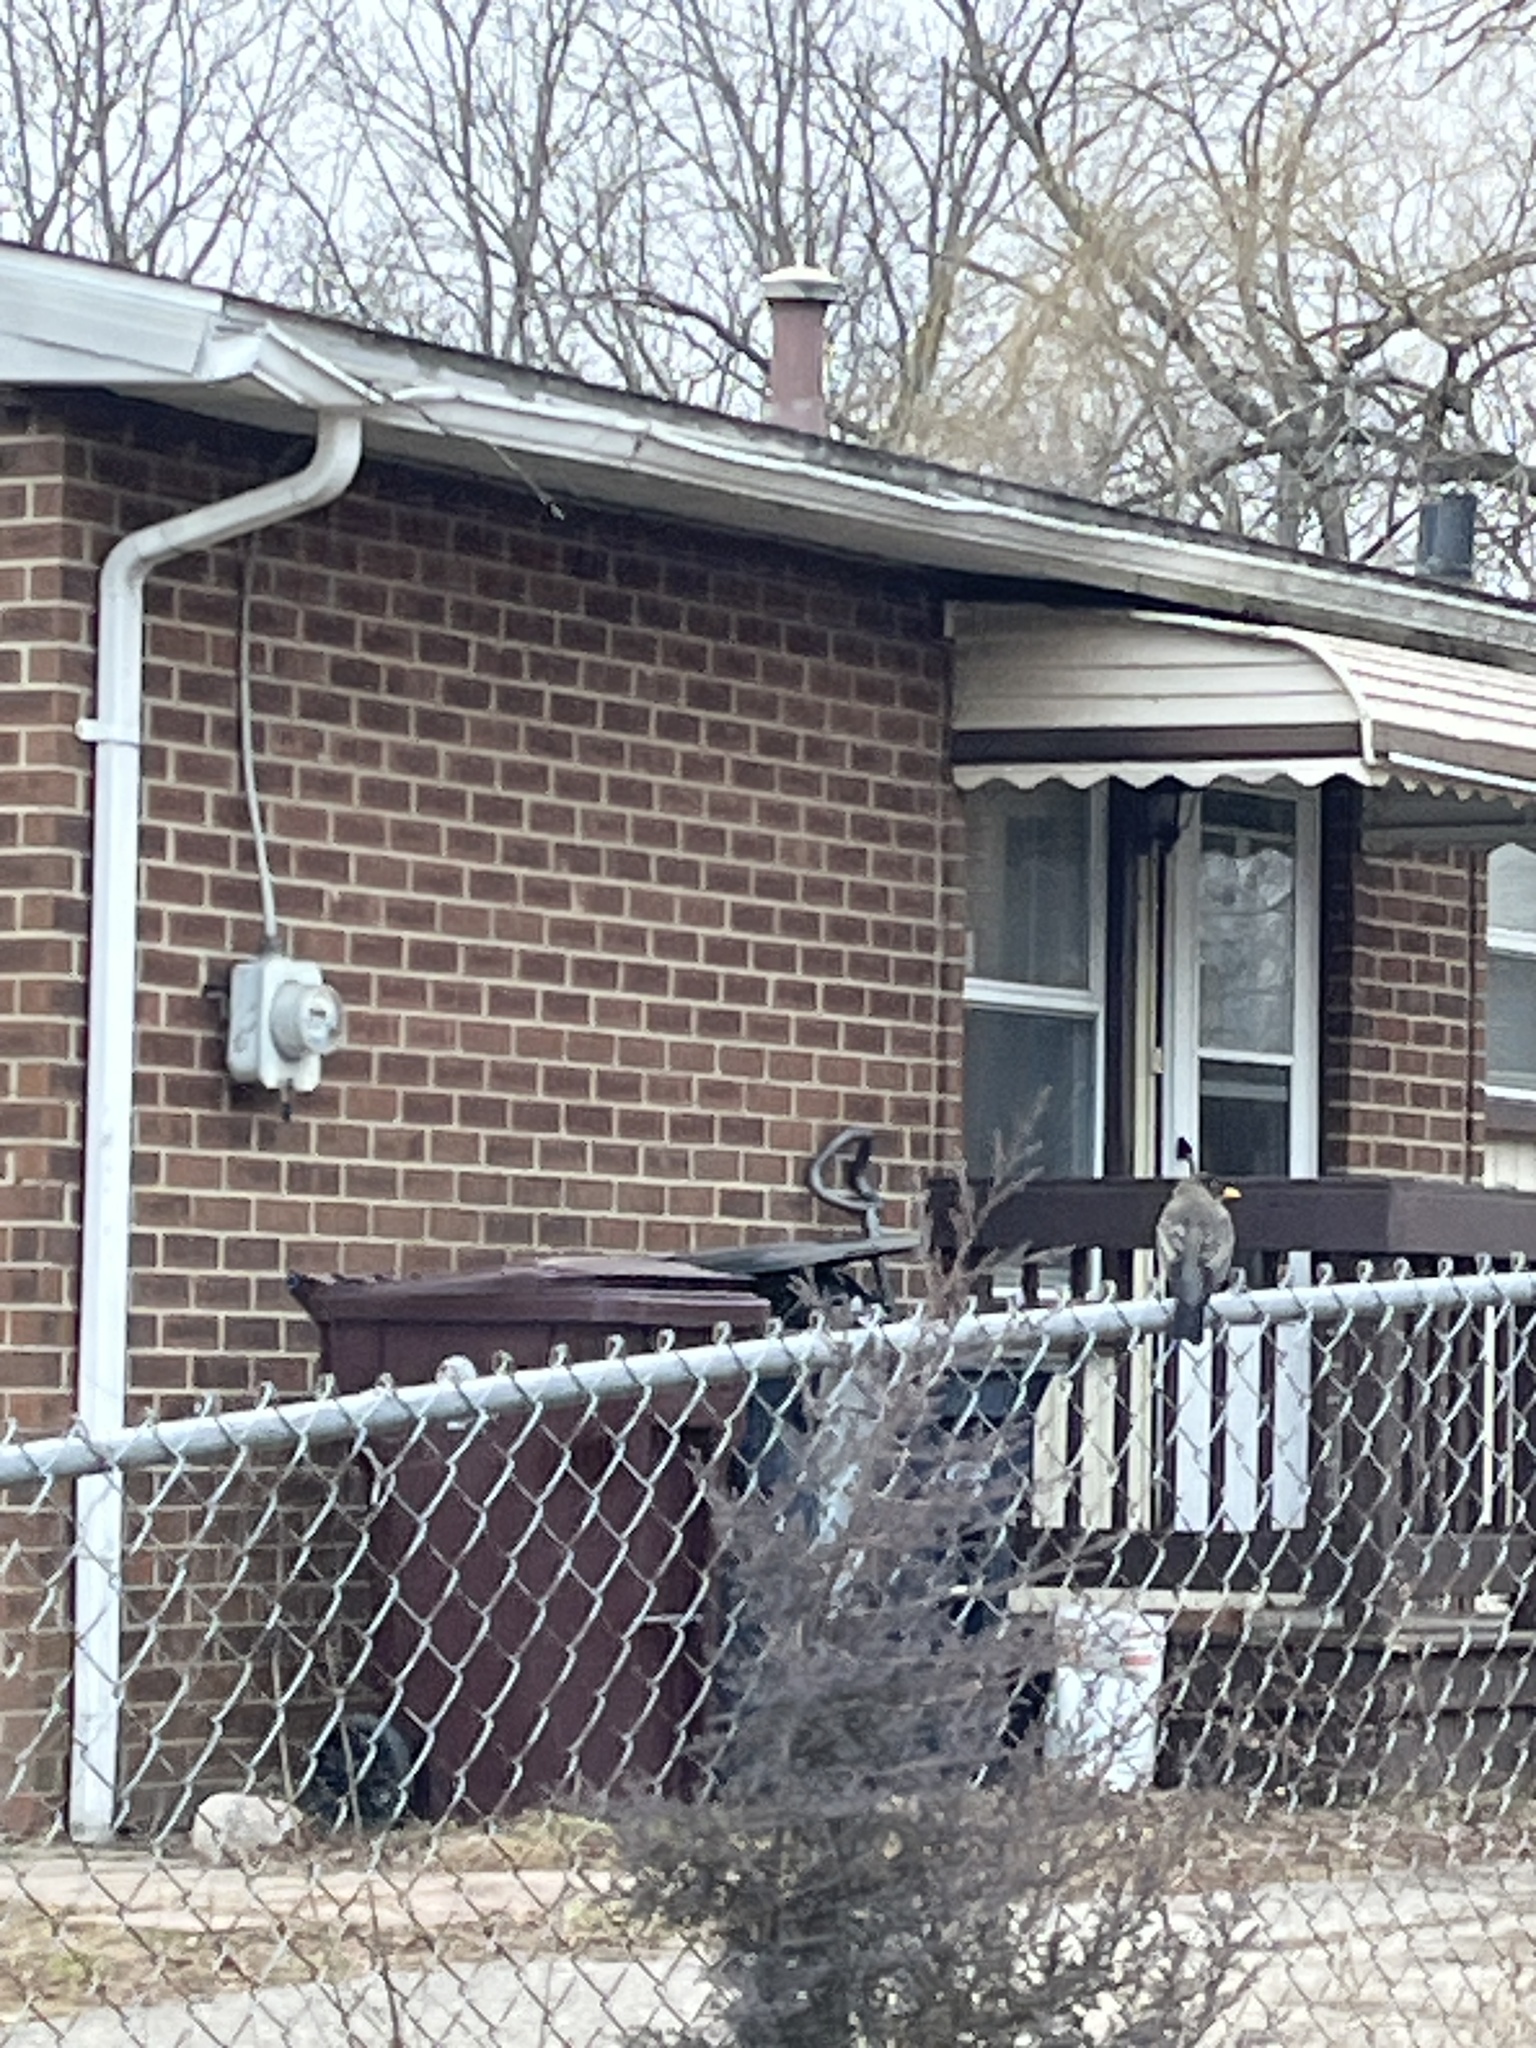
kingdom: Animalia
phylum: Chordata
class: Aves
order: Passeriformes
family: Turdidae
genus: Turdus
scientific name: Turdus migratorius
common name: American robin
